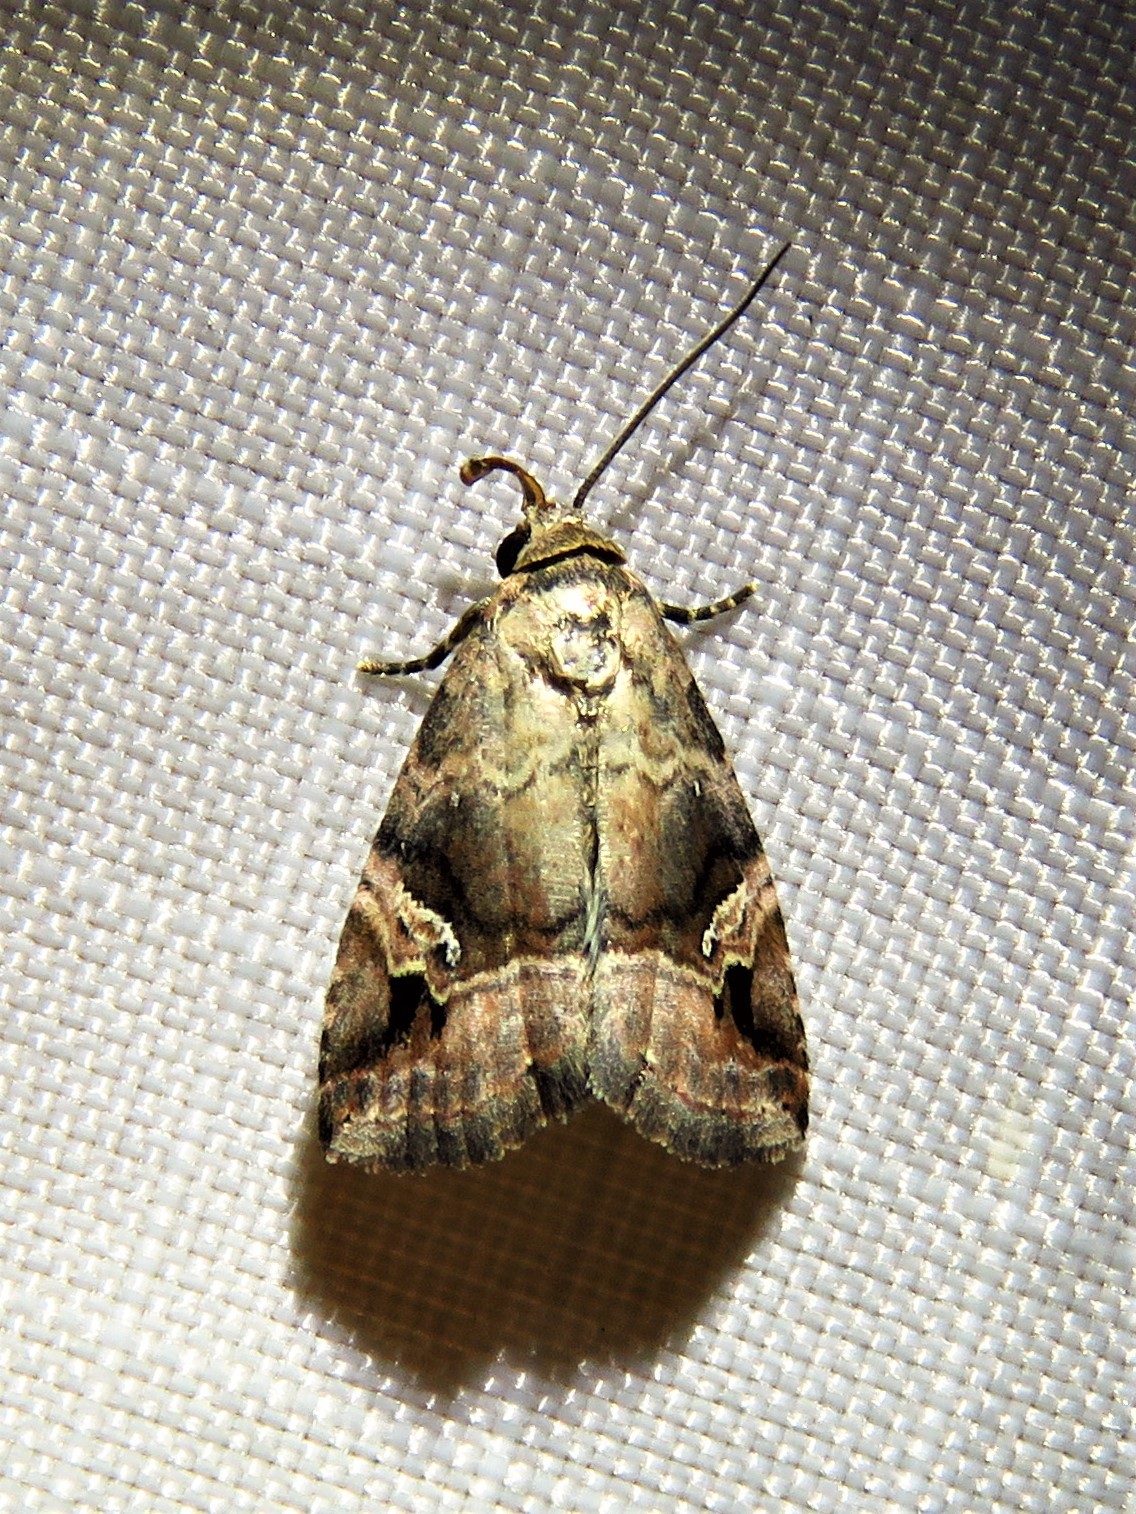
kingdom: Animalia
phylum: Arthropoda
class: Insecta
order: Lepidoptera
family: Noctuidae
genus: Ozarba
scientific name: Ozarba nebula
